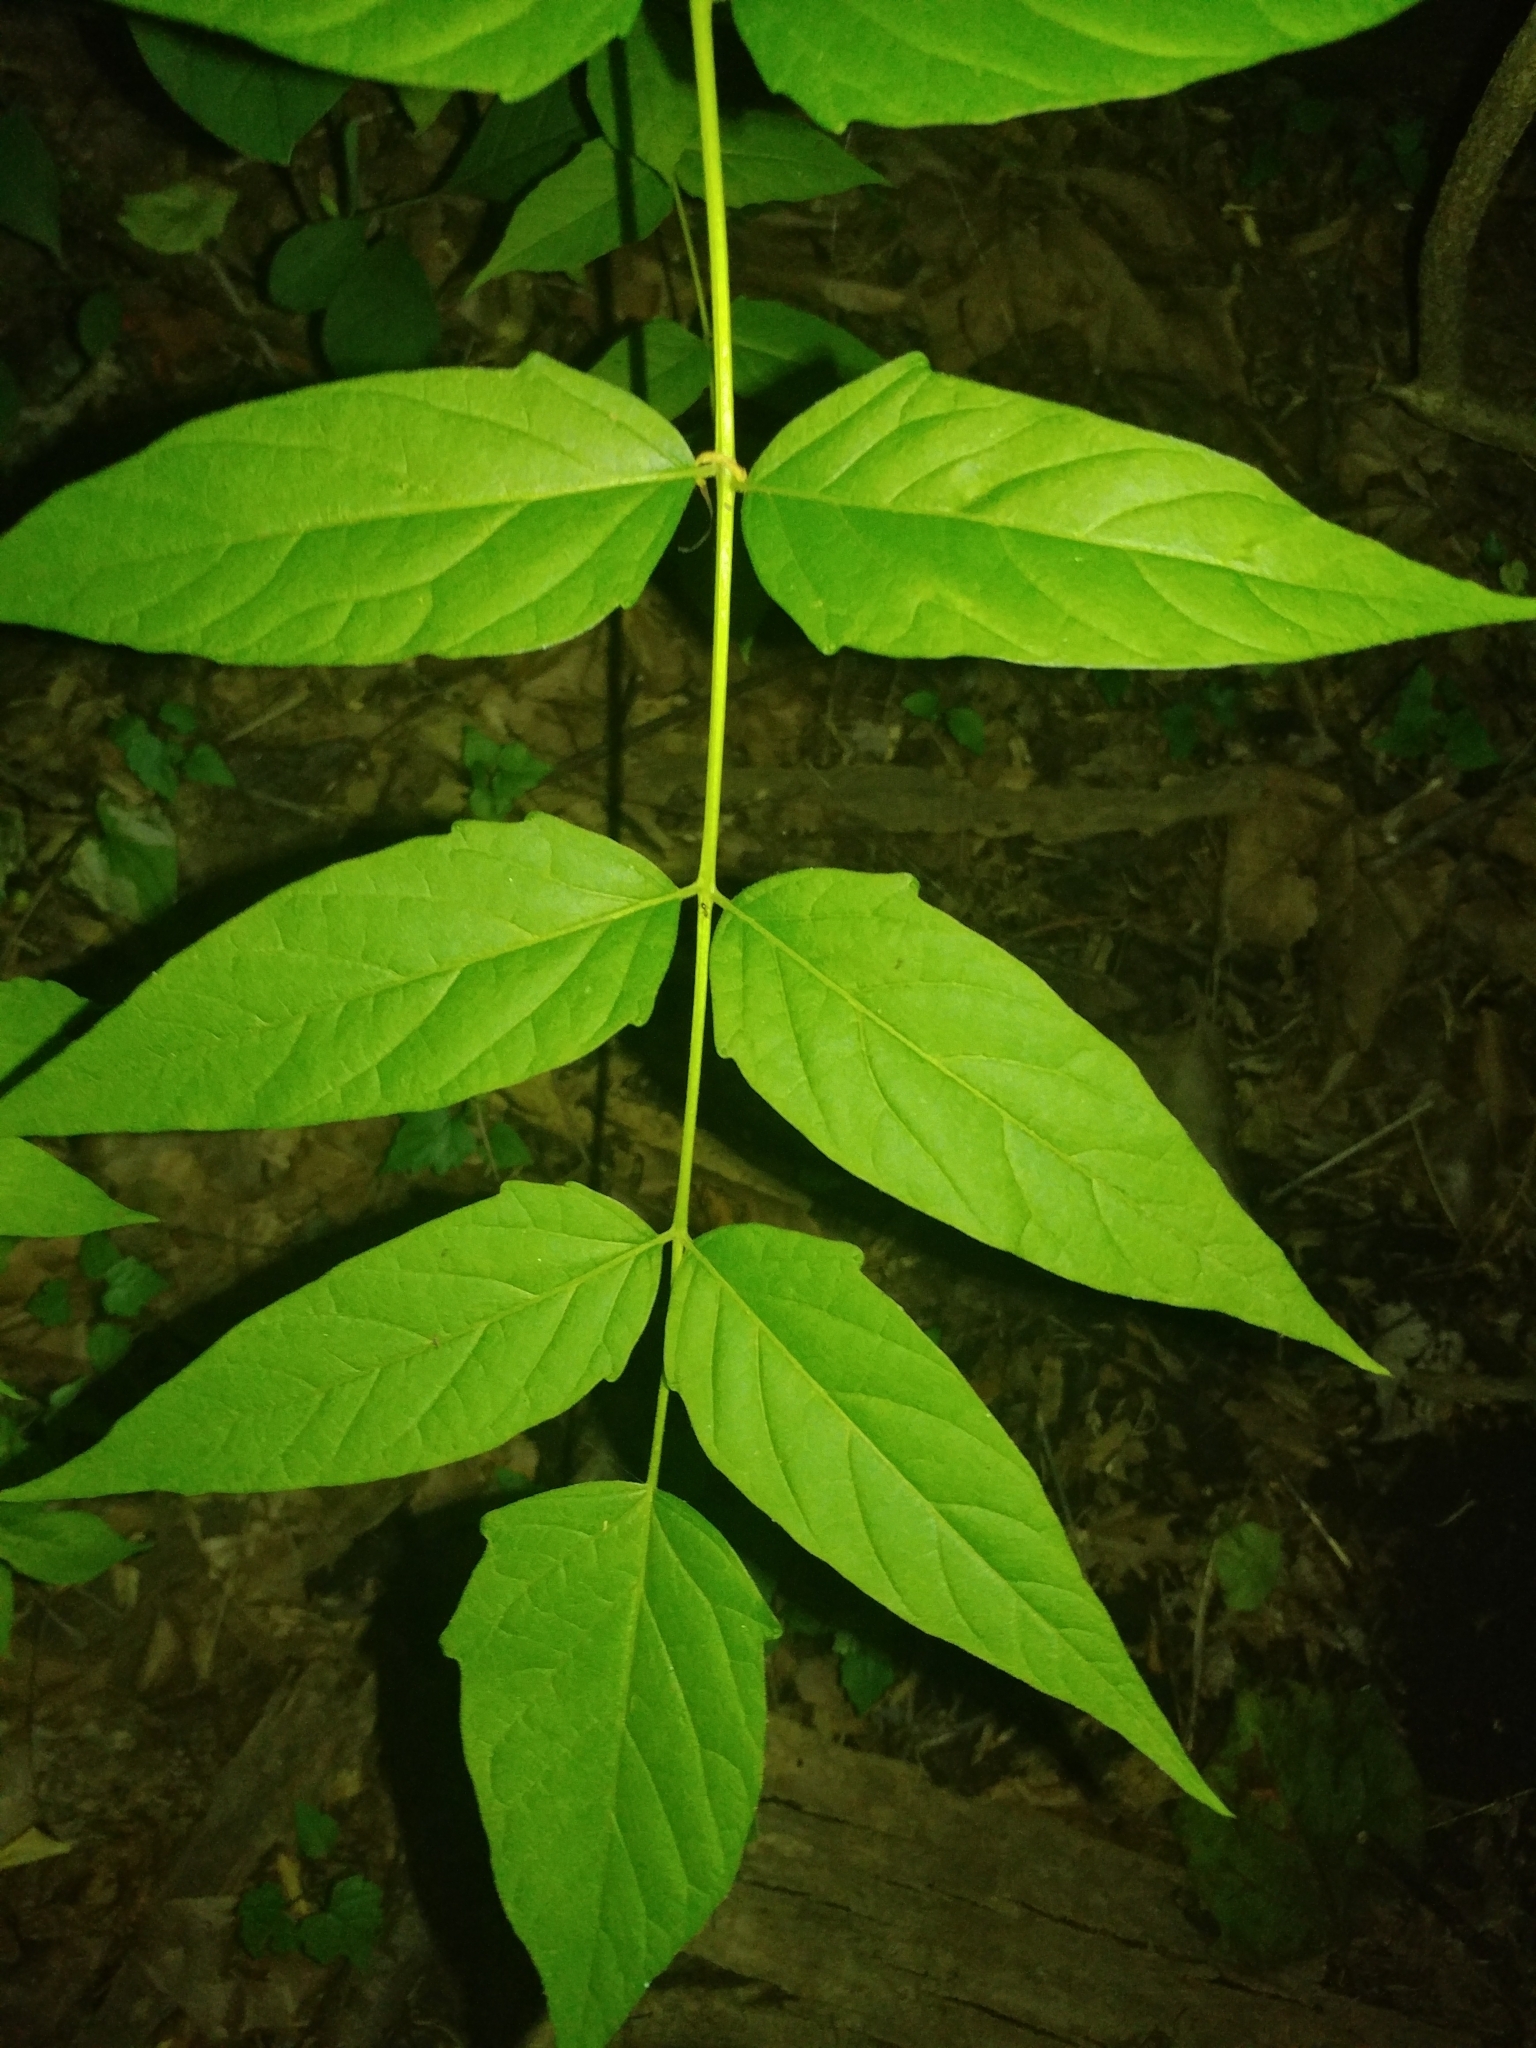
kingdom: Plantae
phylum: Tracheophyta
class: Magnoliopsida
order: Sapindales
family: Simaroubaceae
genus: Ailanthus
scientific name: Ailanthus altissima
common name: Tree-of-heaven
